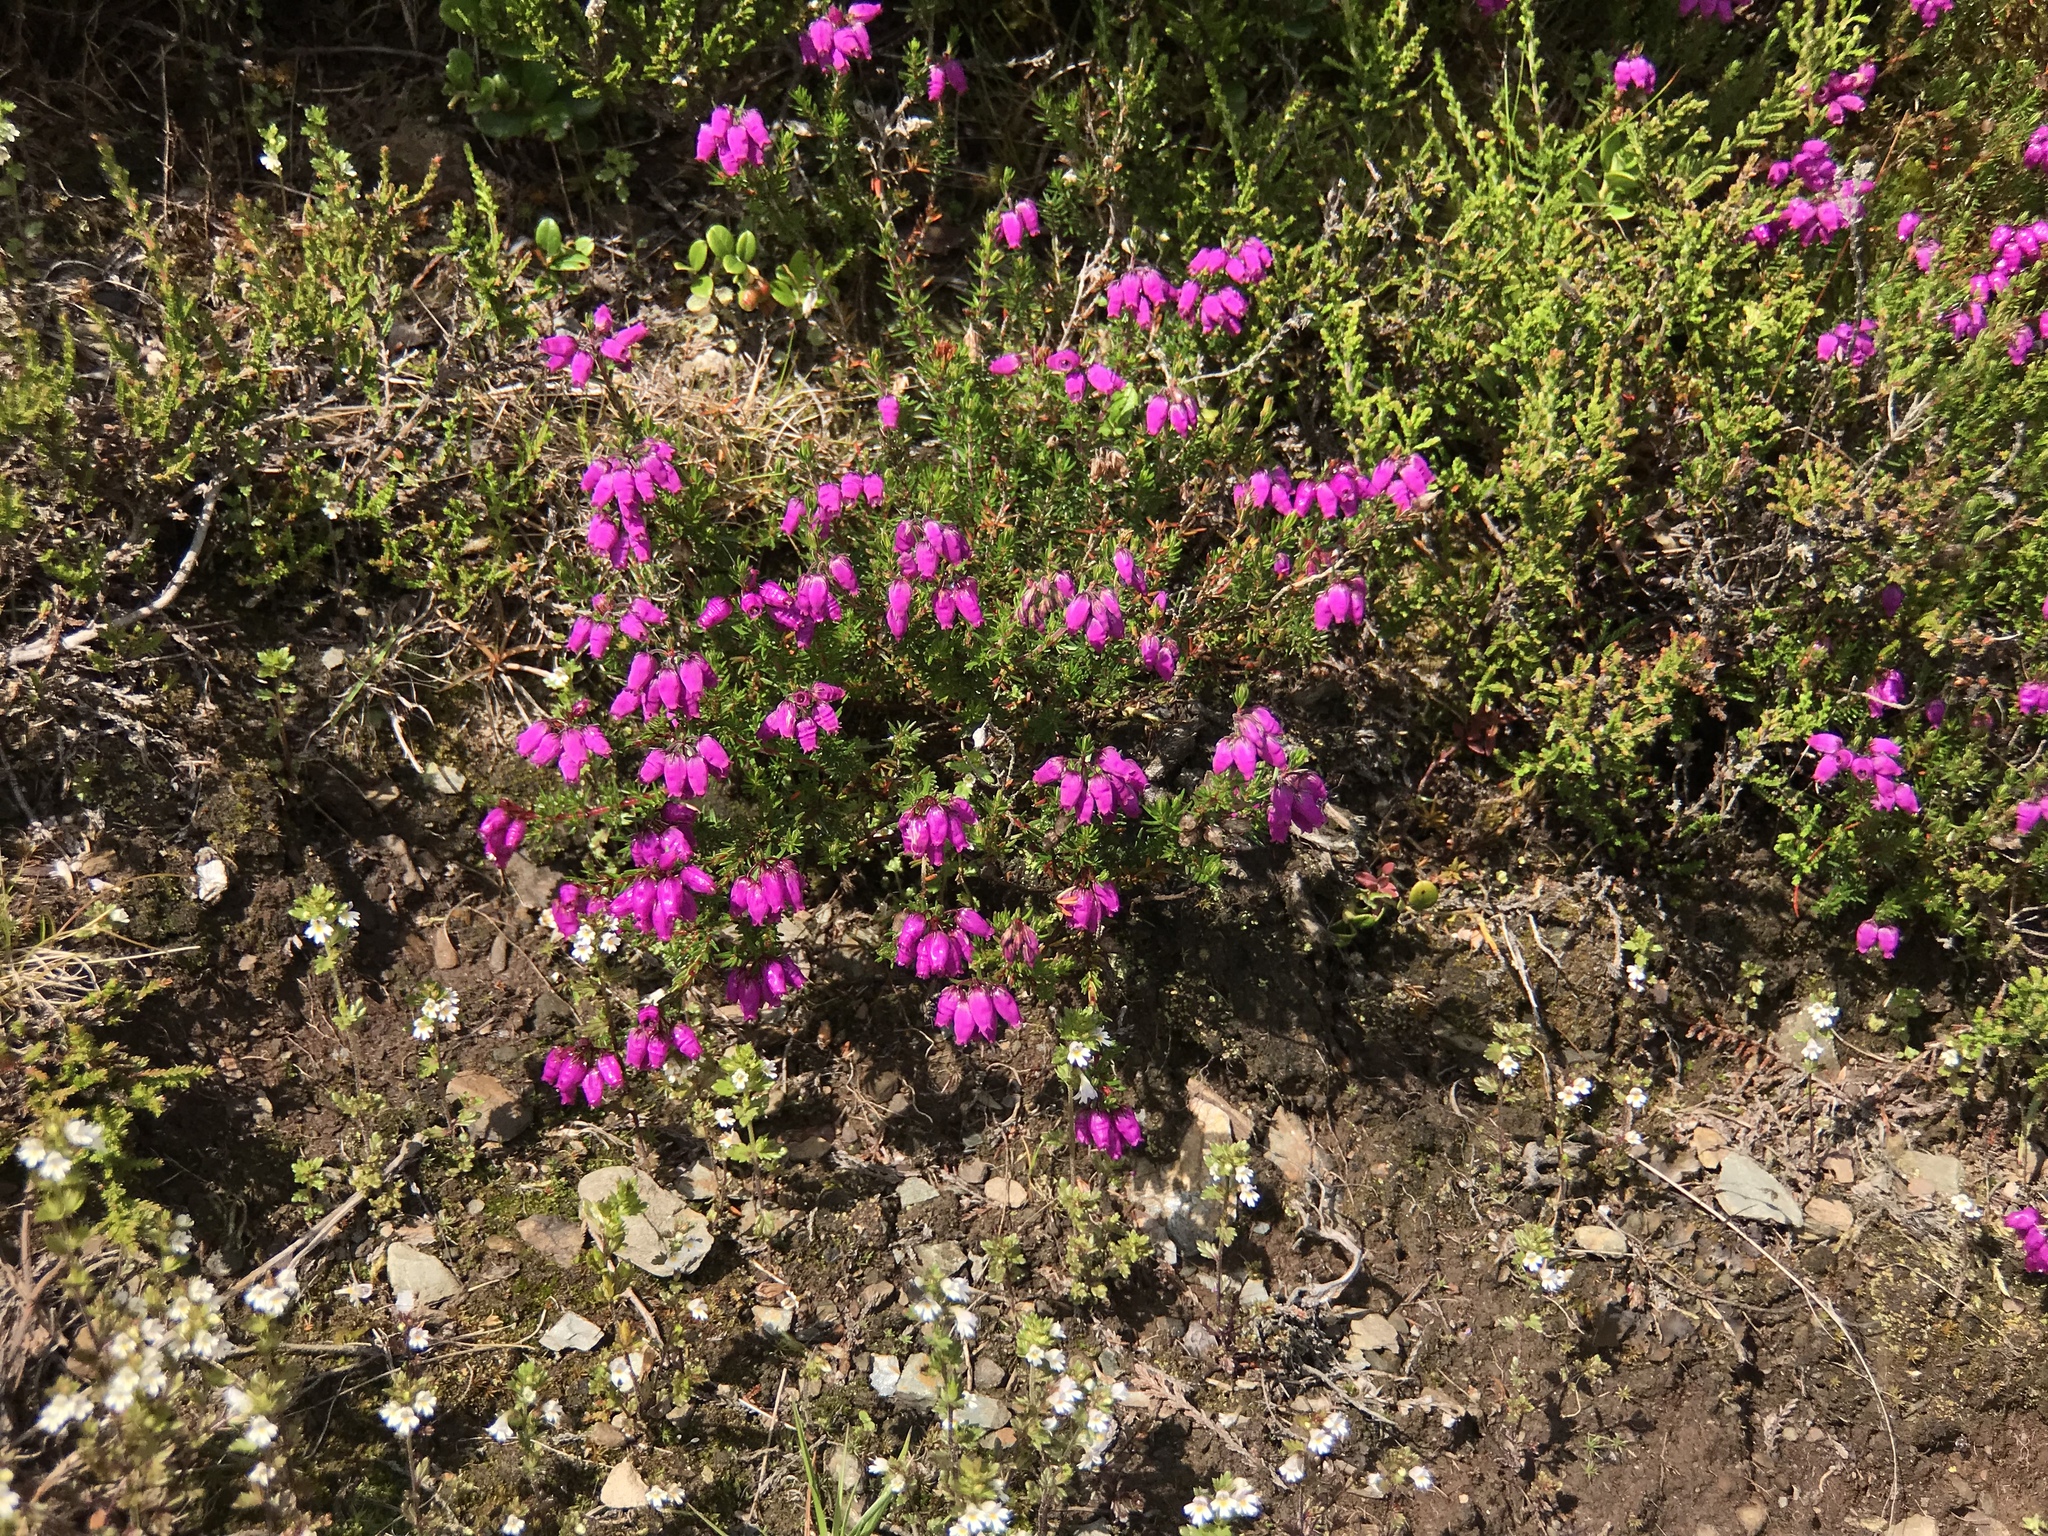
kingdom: Plantae
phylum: Tracheophyta
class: Magnoliopsida
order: Ericales
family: Ericaceae
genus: Erica
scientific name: Erica cinerea
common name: Bell heather
